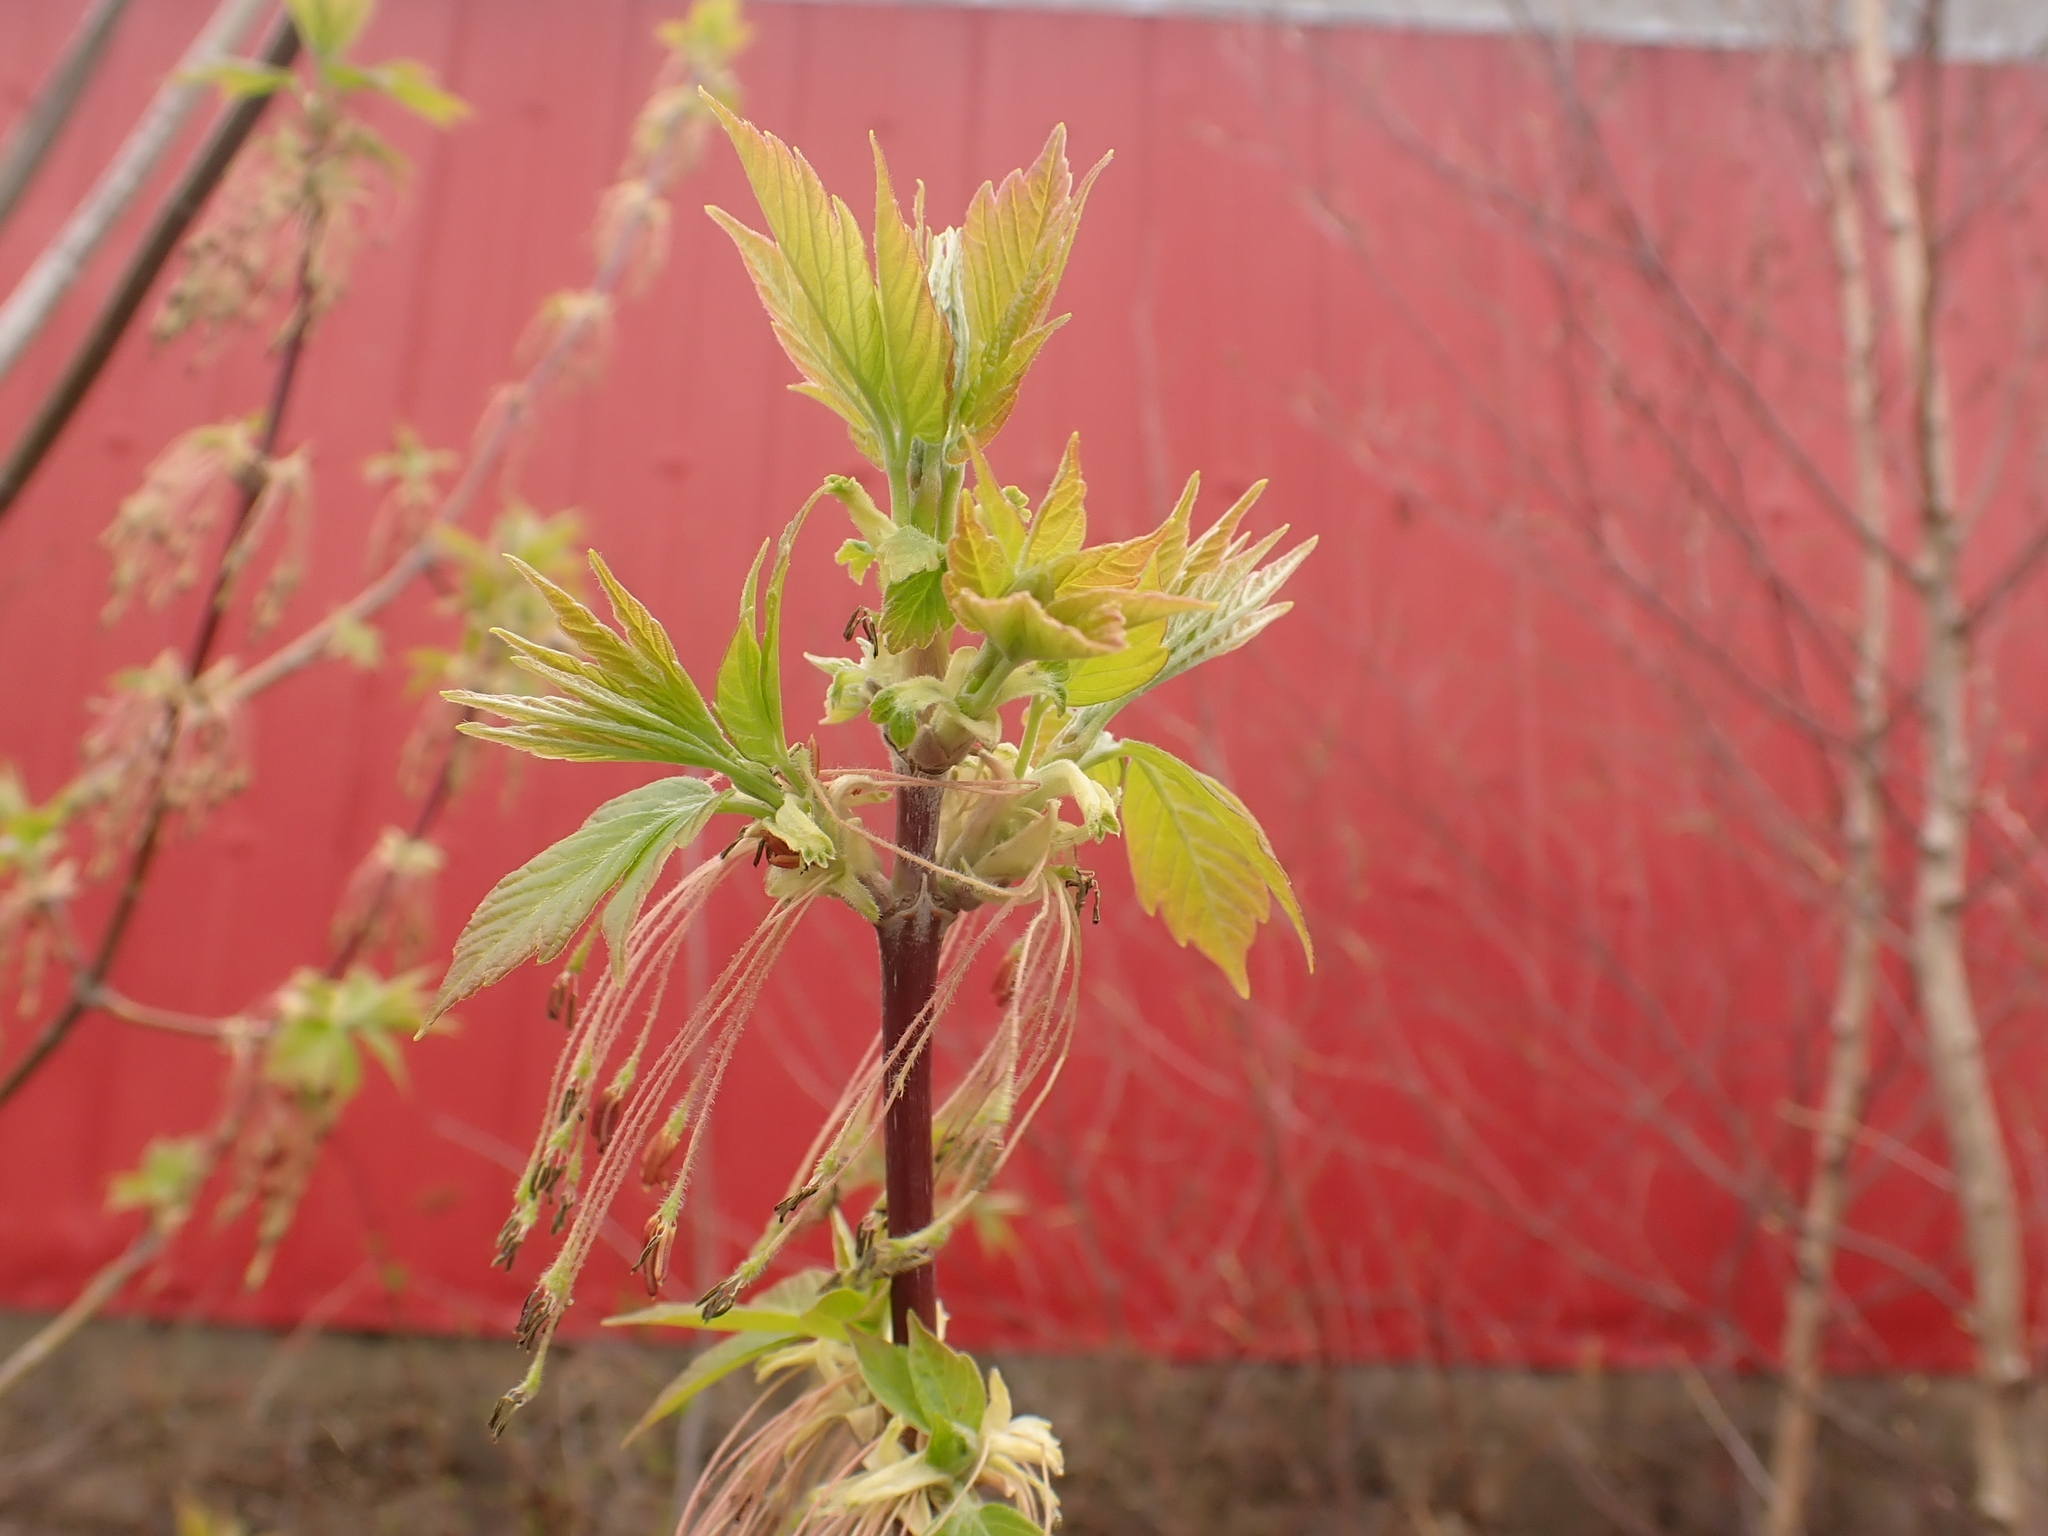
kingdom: Plantae
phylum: Tracheophyta
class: Magnoliopsida
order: Sapindales
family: Sapindaceae
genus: Acer
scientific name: Acer negundo
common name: Ashleaf maple
